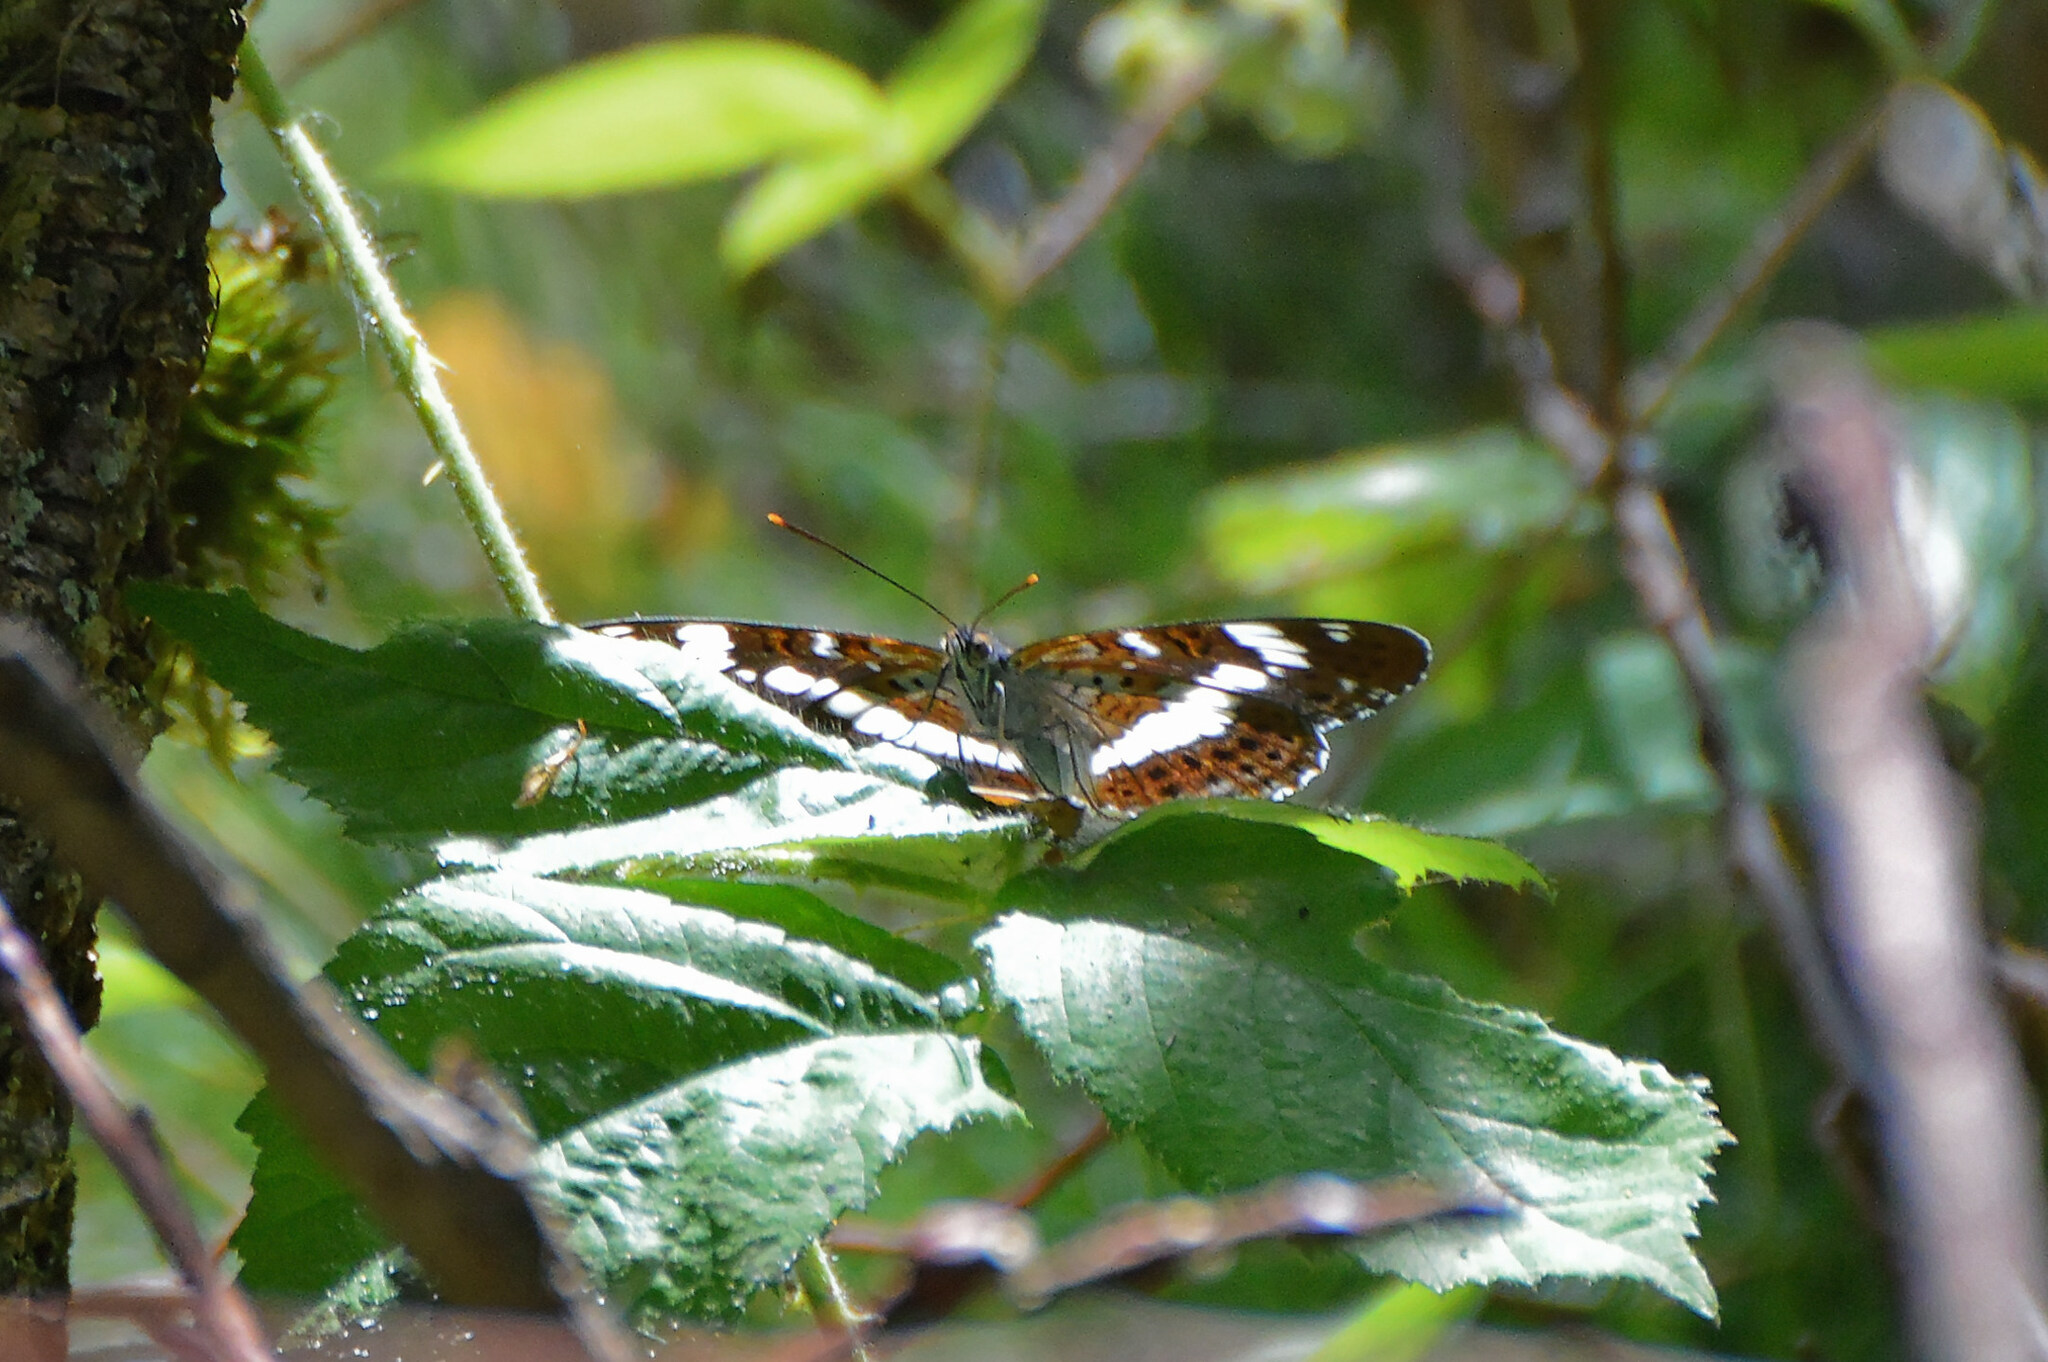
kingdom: Animalia
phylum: Arthropoda
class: Insecta
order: Lepidoptera
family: Nymphalidae
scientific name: Nymphalidae
